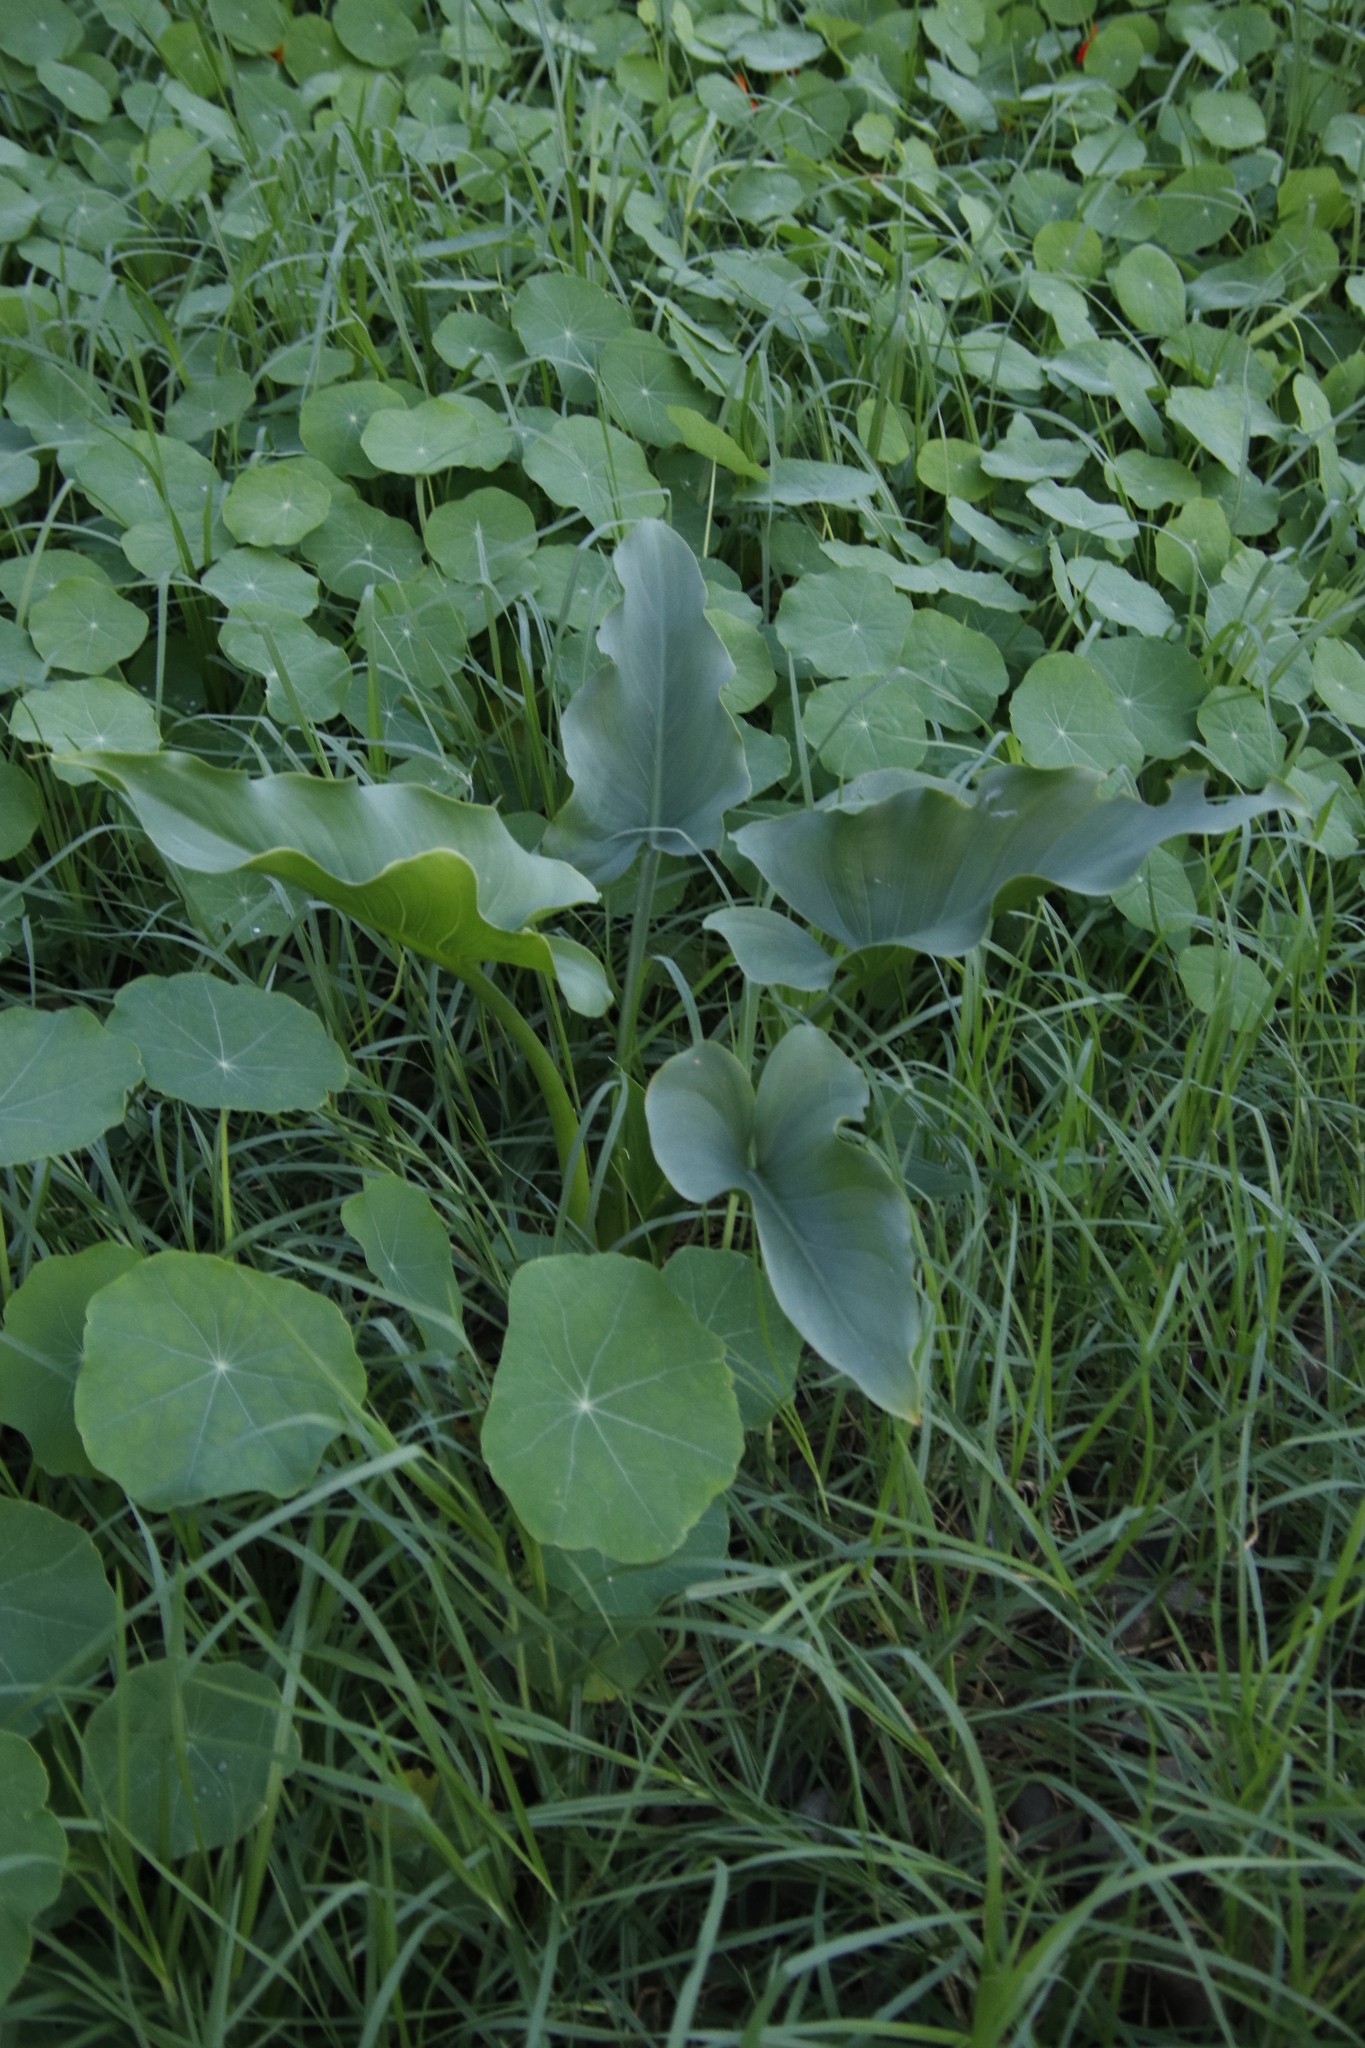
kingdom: Plantae
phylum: Tracheophyta
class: Liliopsida
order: Alismatales
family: Araceae
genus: Zantedeschia
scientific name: Zantedeschia aethiopica
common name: Altar-lily
